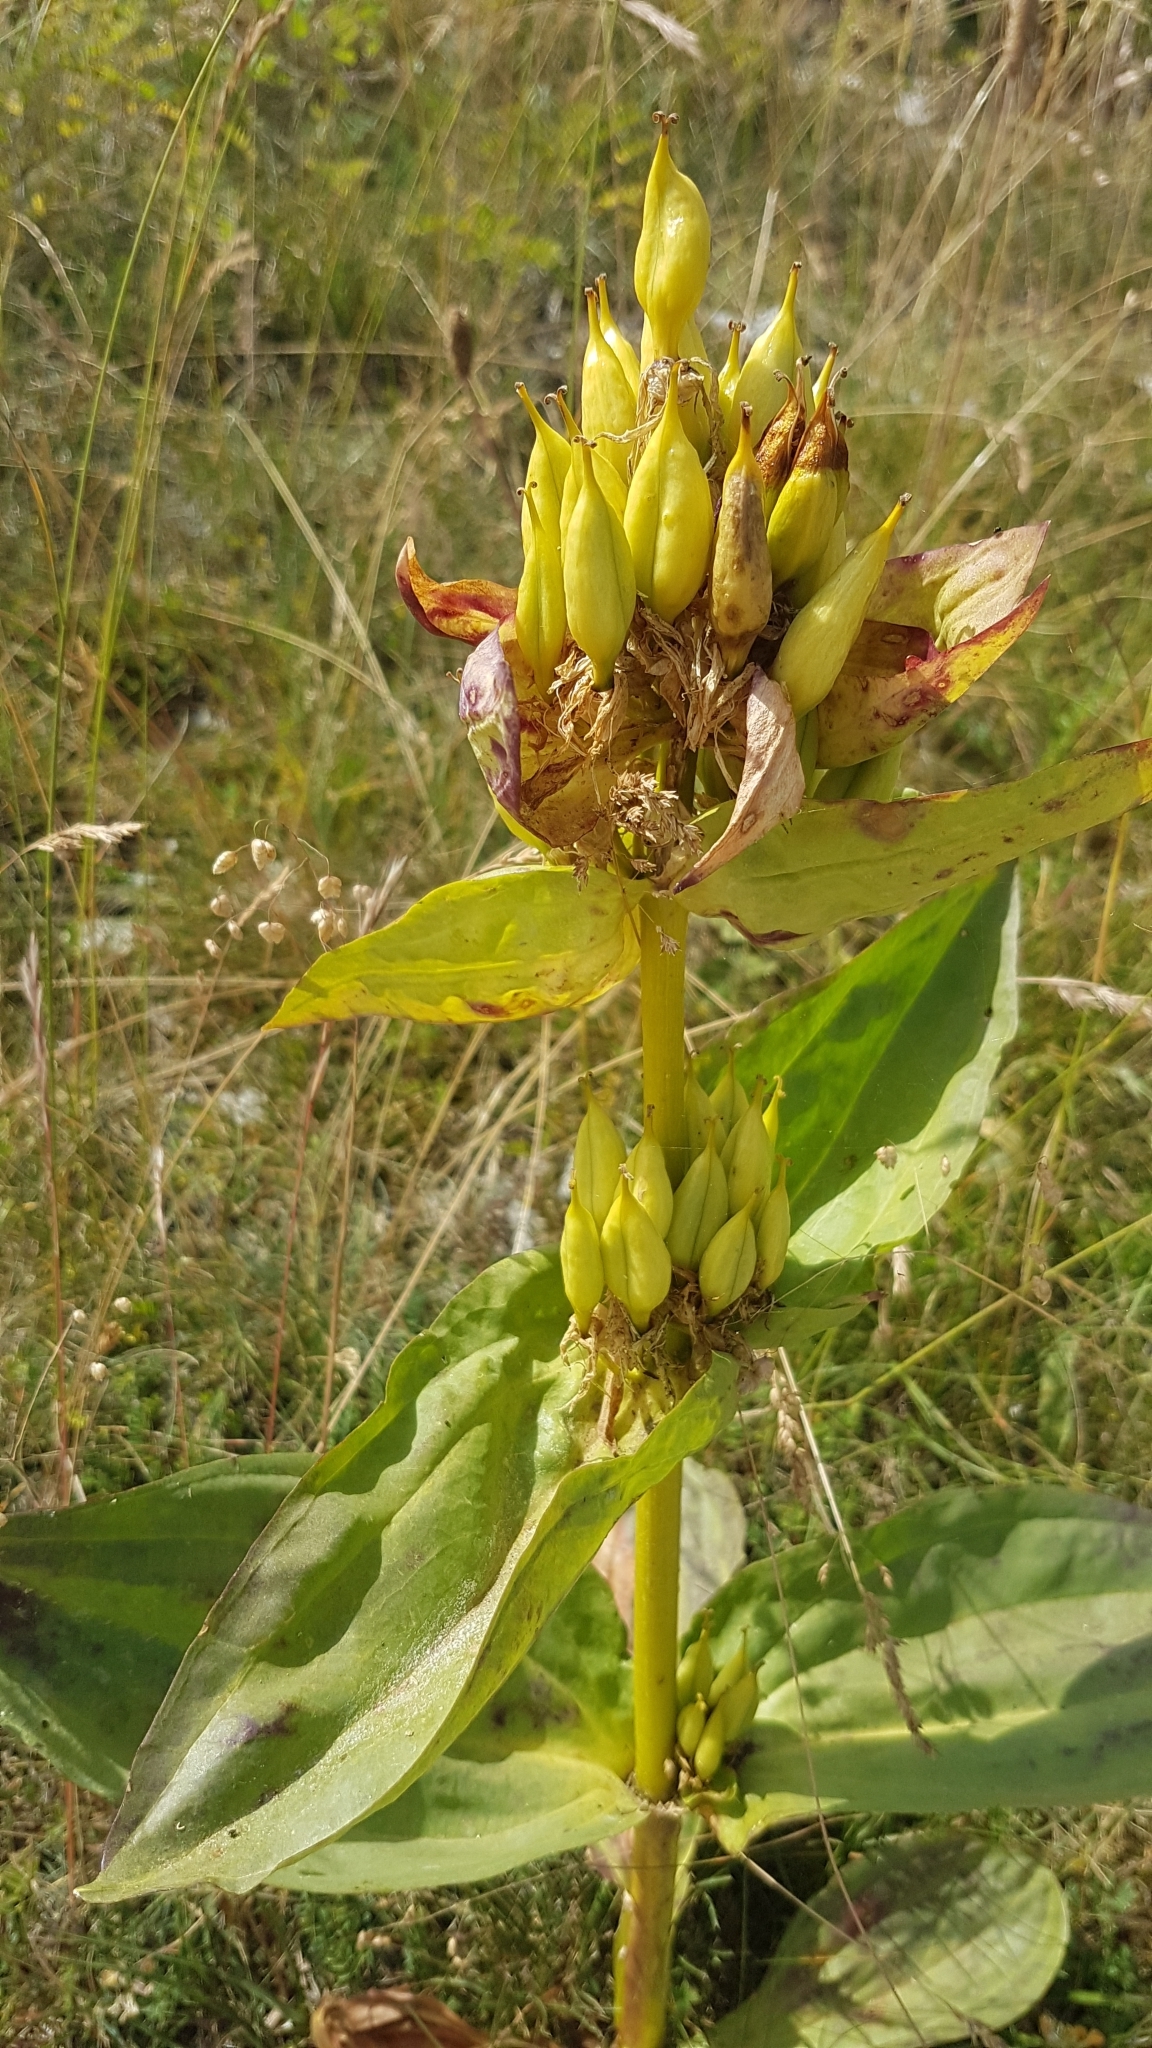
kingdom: Plantae
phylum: Tracheophyta
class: Magnoliopsida
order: Gentianales
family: Gentianaceae
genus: Gentiana
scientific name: Gentiana lutea
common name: Great yellow gentian
